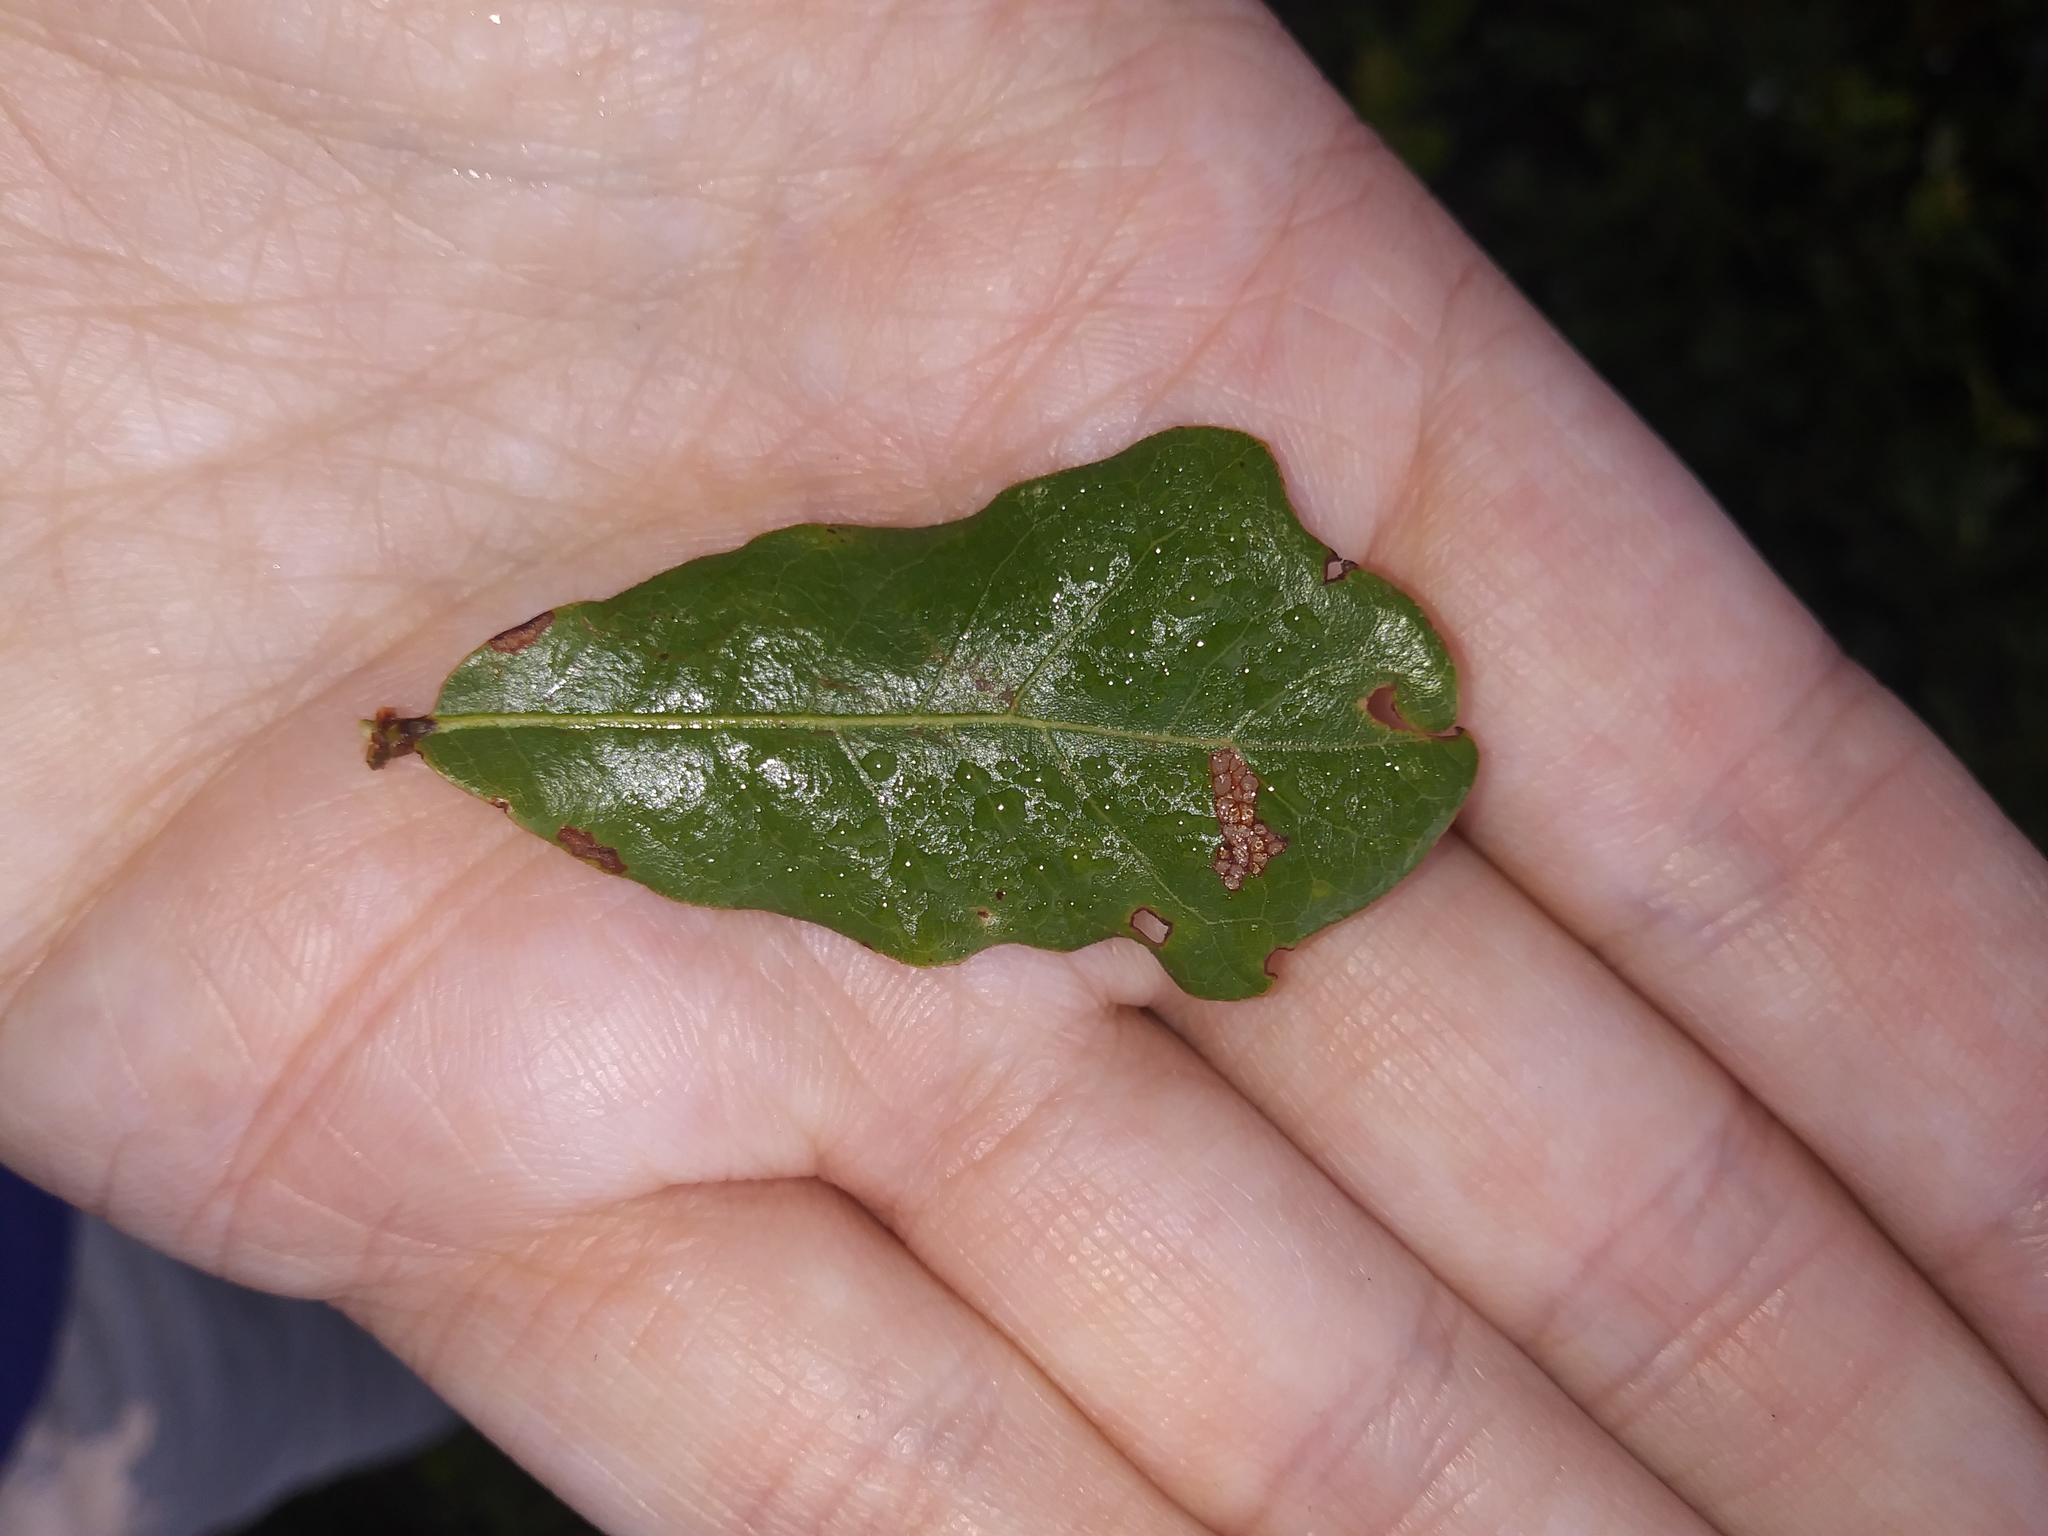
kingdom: Plantae
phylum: Tracheophyta
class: Magnoliopsida
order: Fagales
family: Fagaceae
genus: Quercus
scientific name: Quercus chapmanii
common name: Chapman oak
